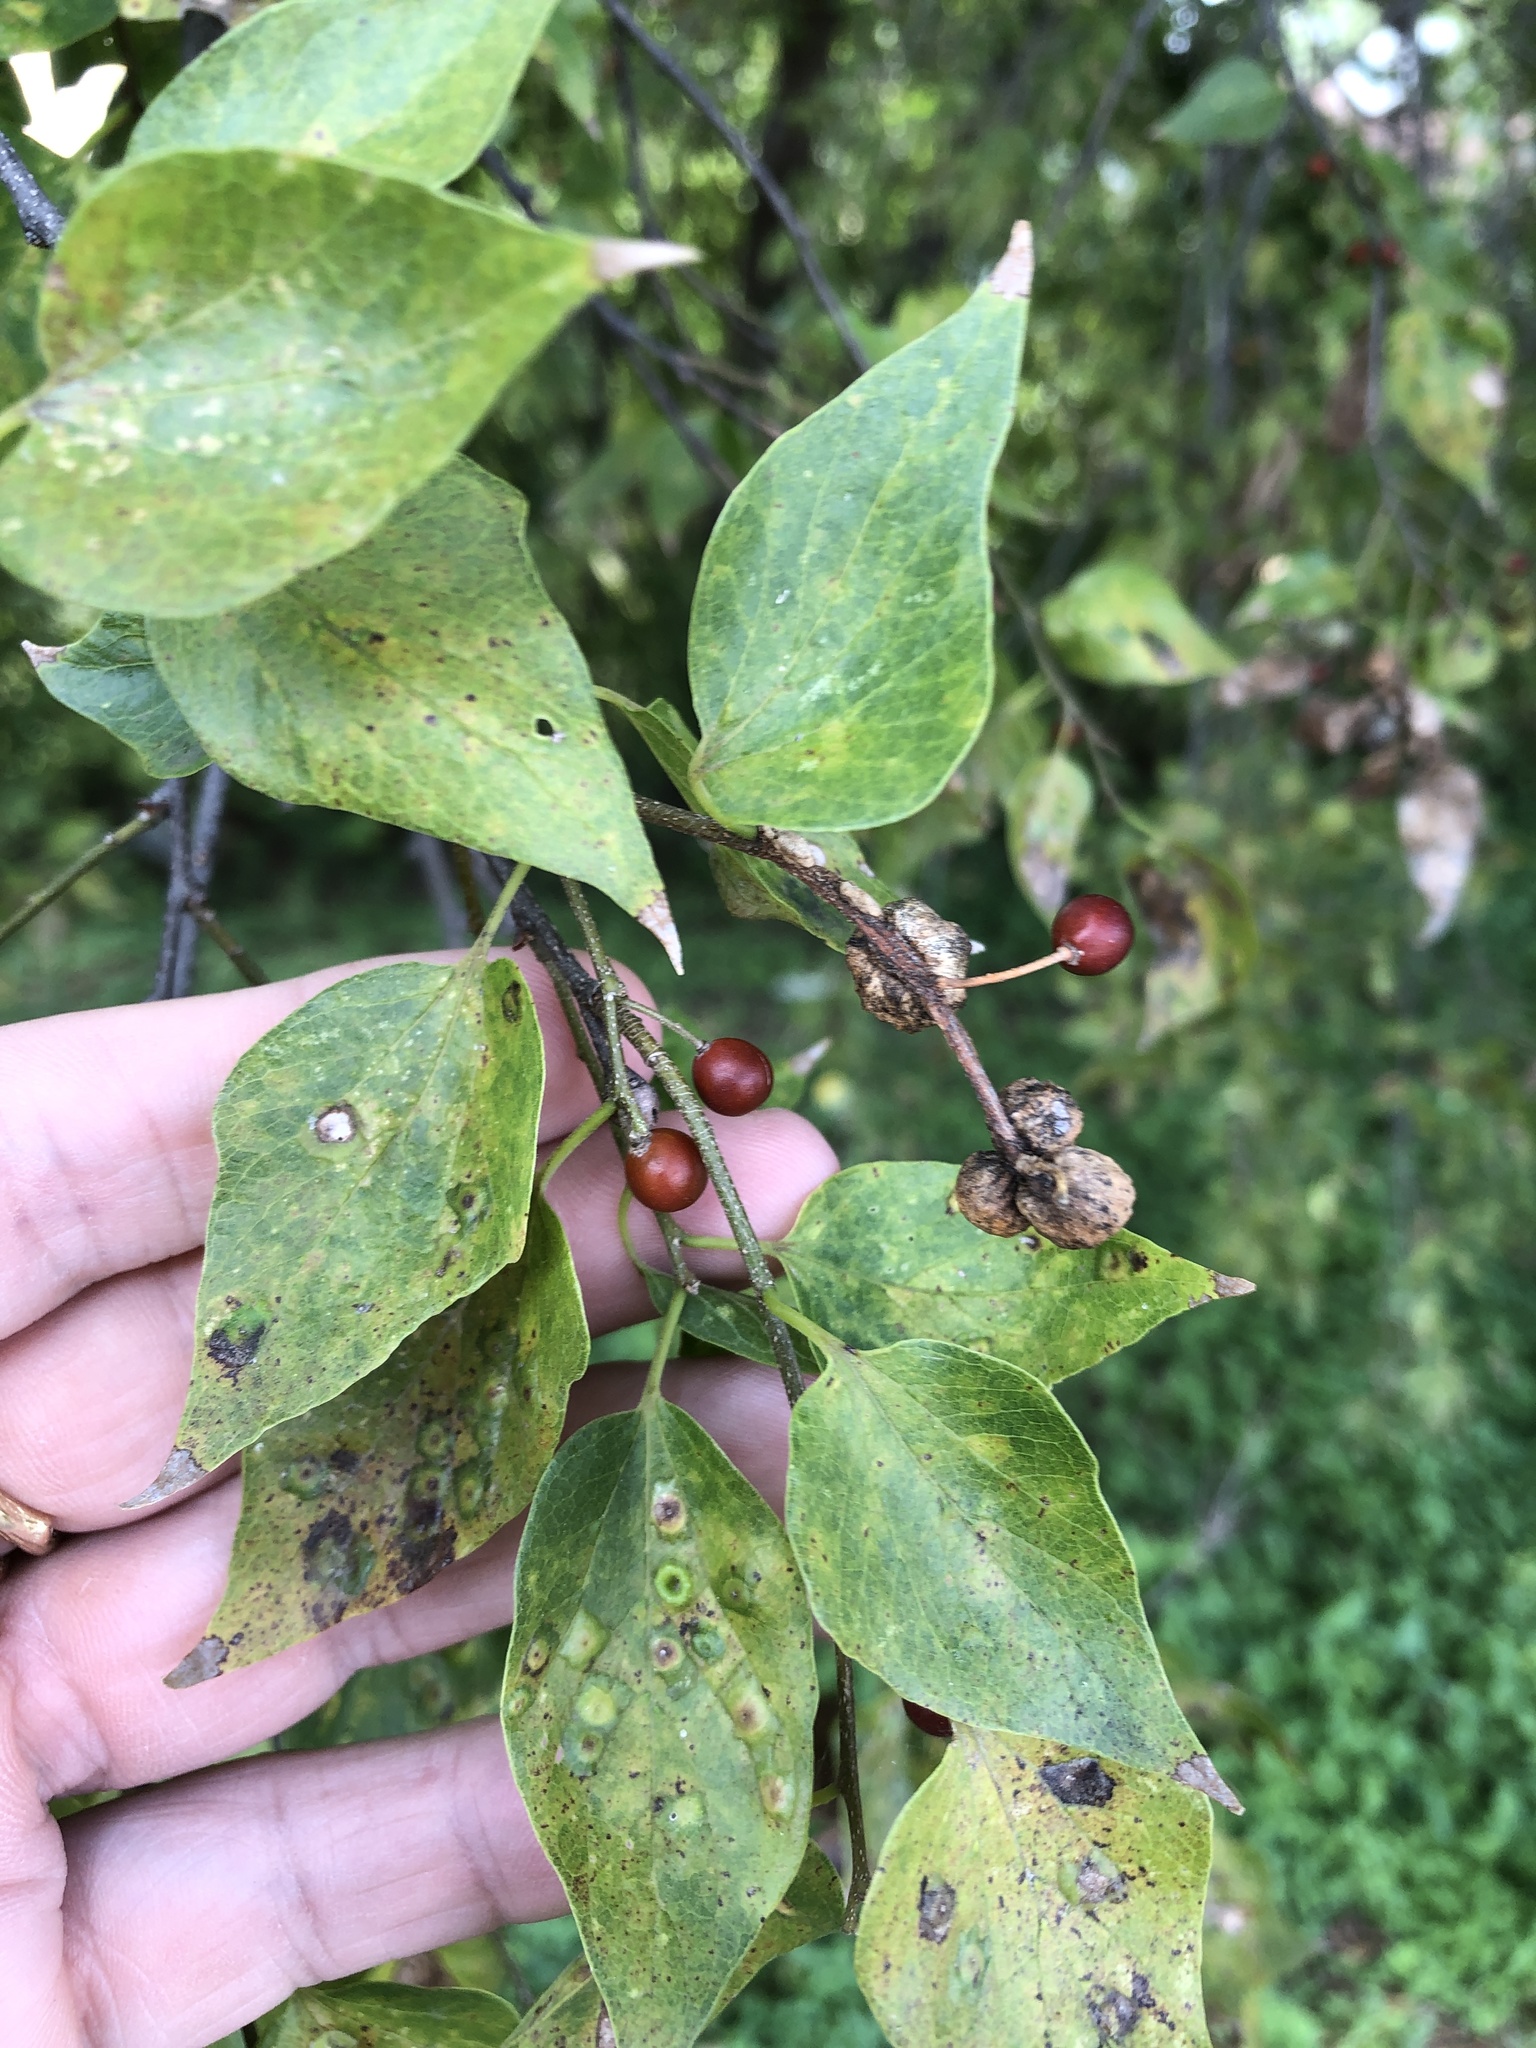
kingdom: Plantae
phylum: Tracheophyta
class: Magnoliopsida
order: Rosales
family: Cannabaceae
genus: Celtis
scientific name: Celtis laevigata
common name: Sugarberry
